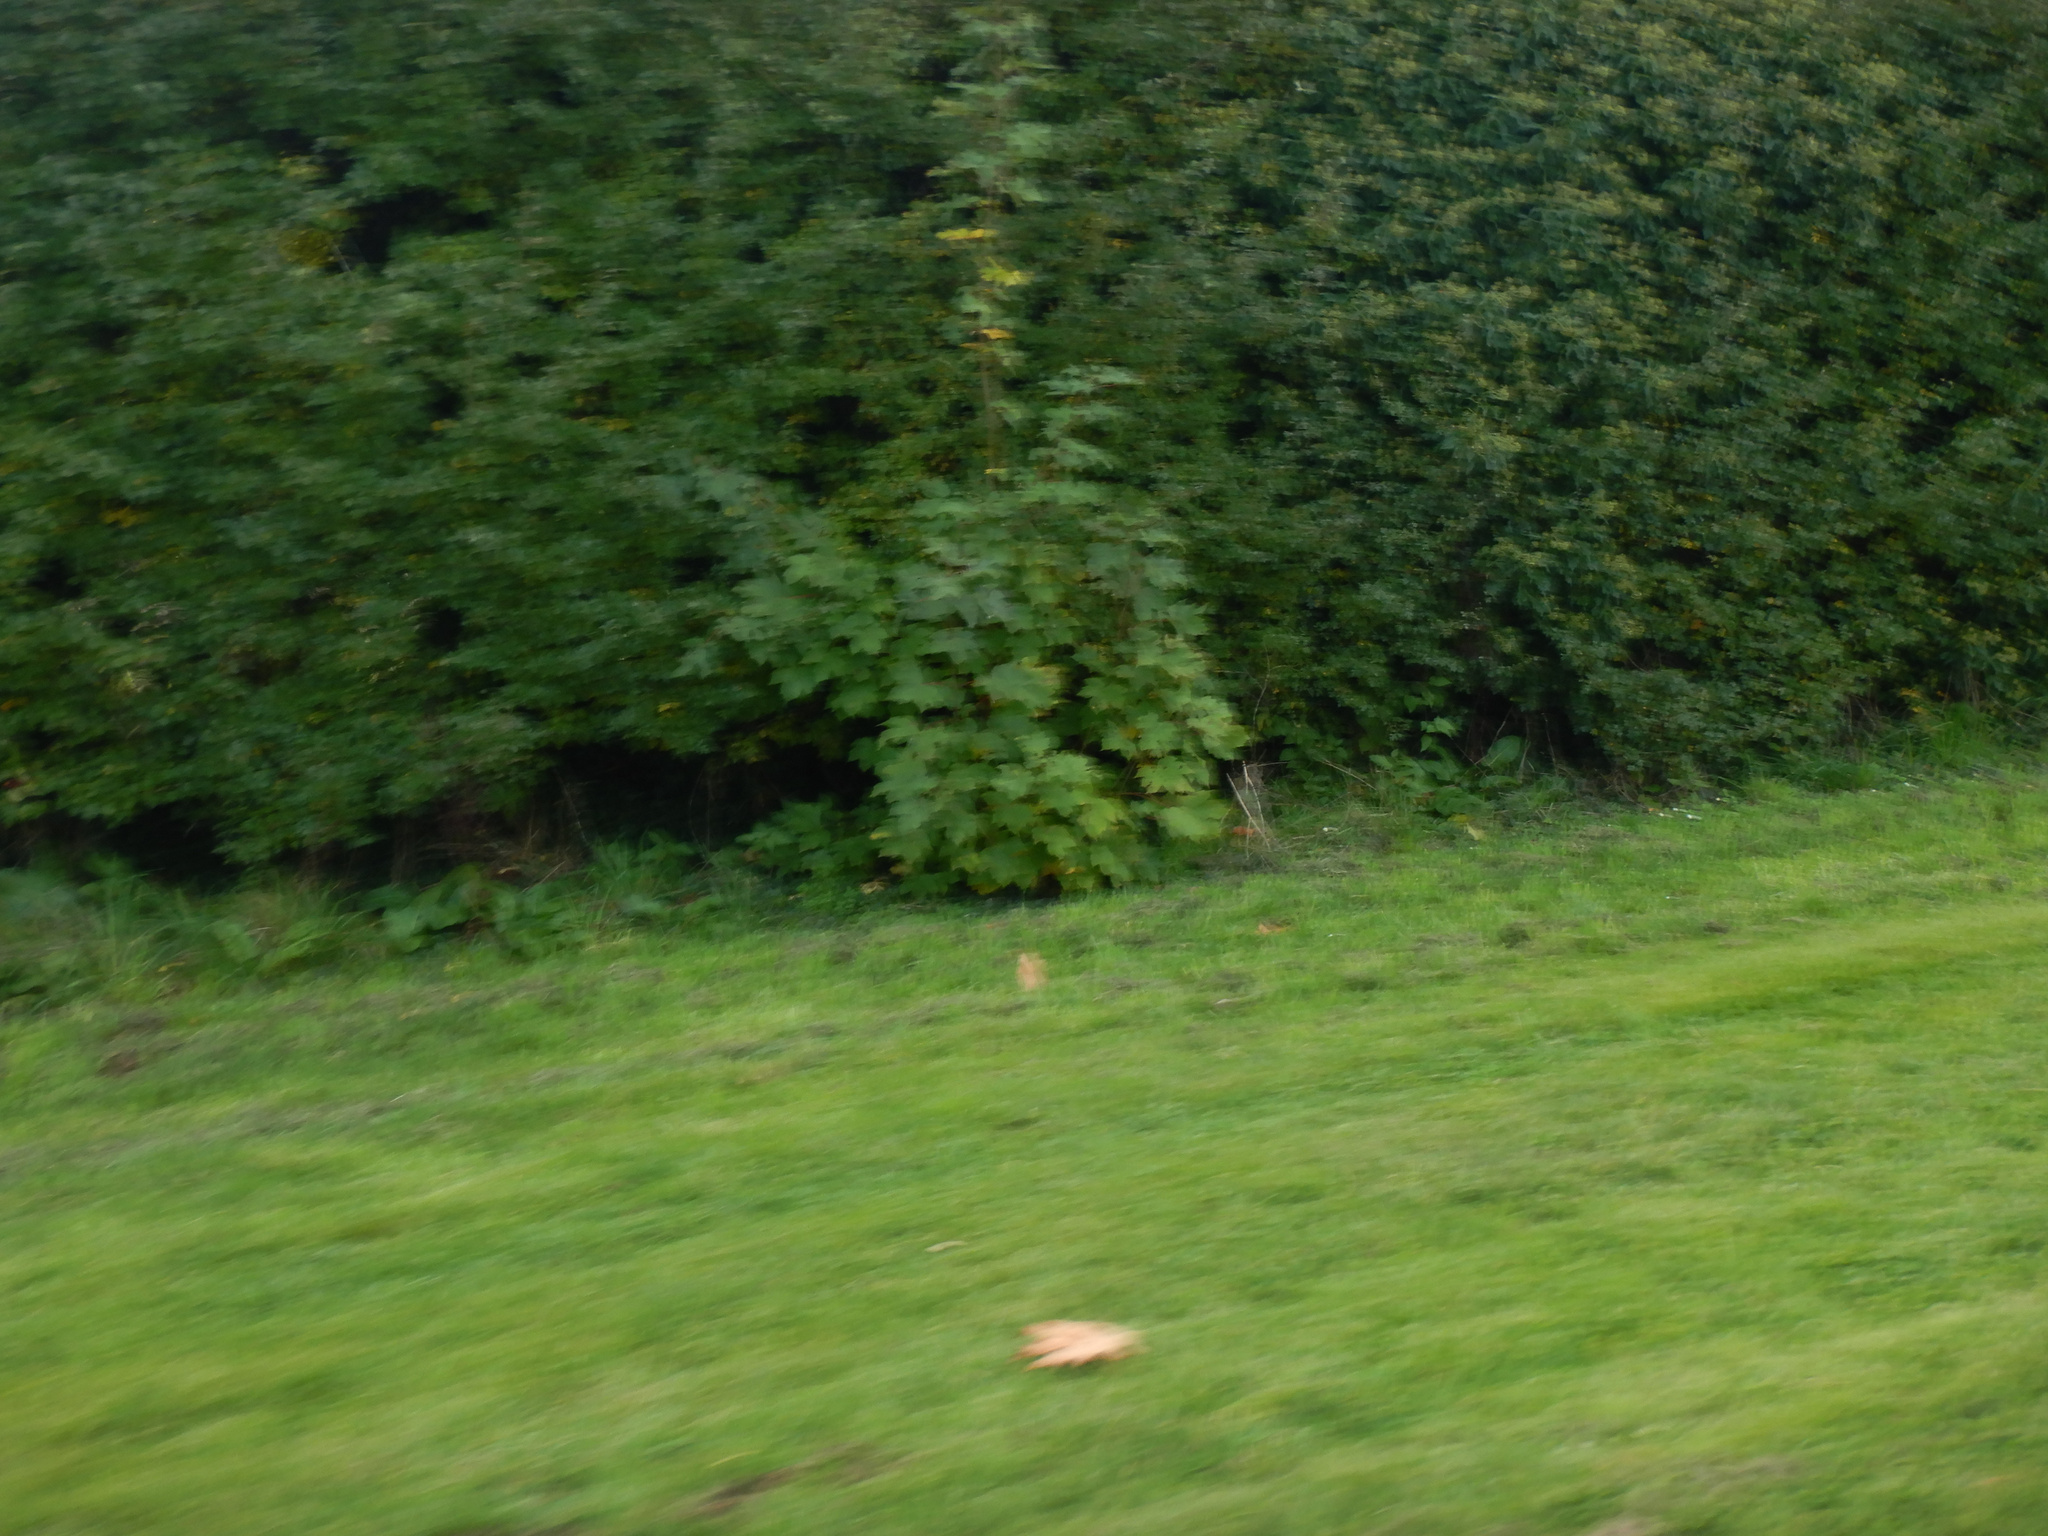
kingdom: Plantae
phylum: Tracheophyta
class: Magnoliopsida
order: Sapindales
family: Sapindaceae
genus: Acer
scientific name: Acer pseudoplatanus
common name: Sycamore
